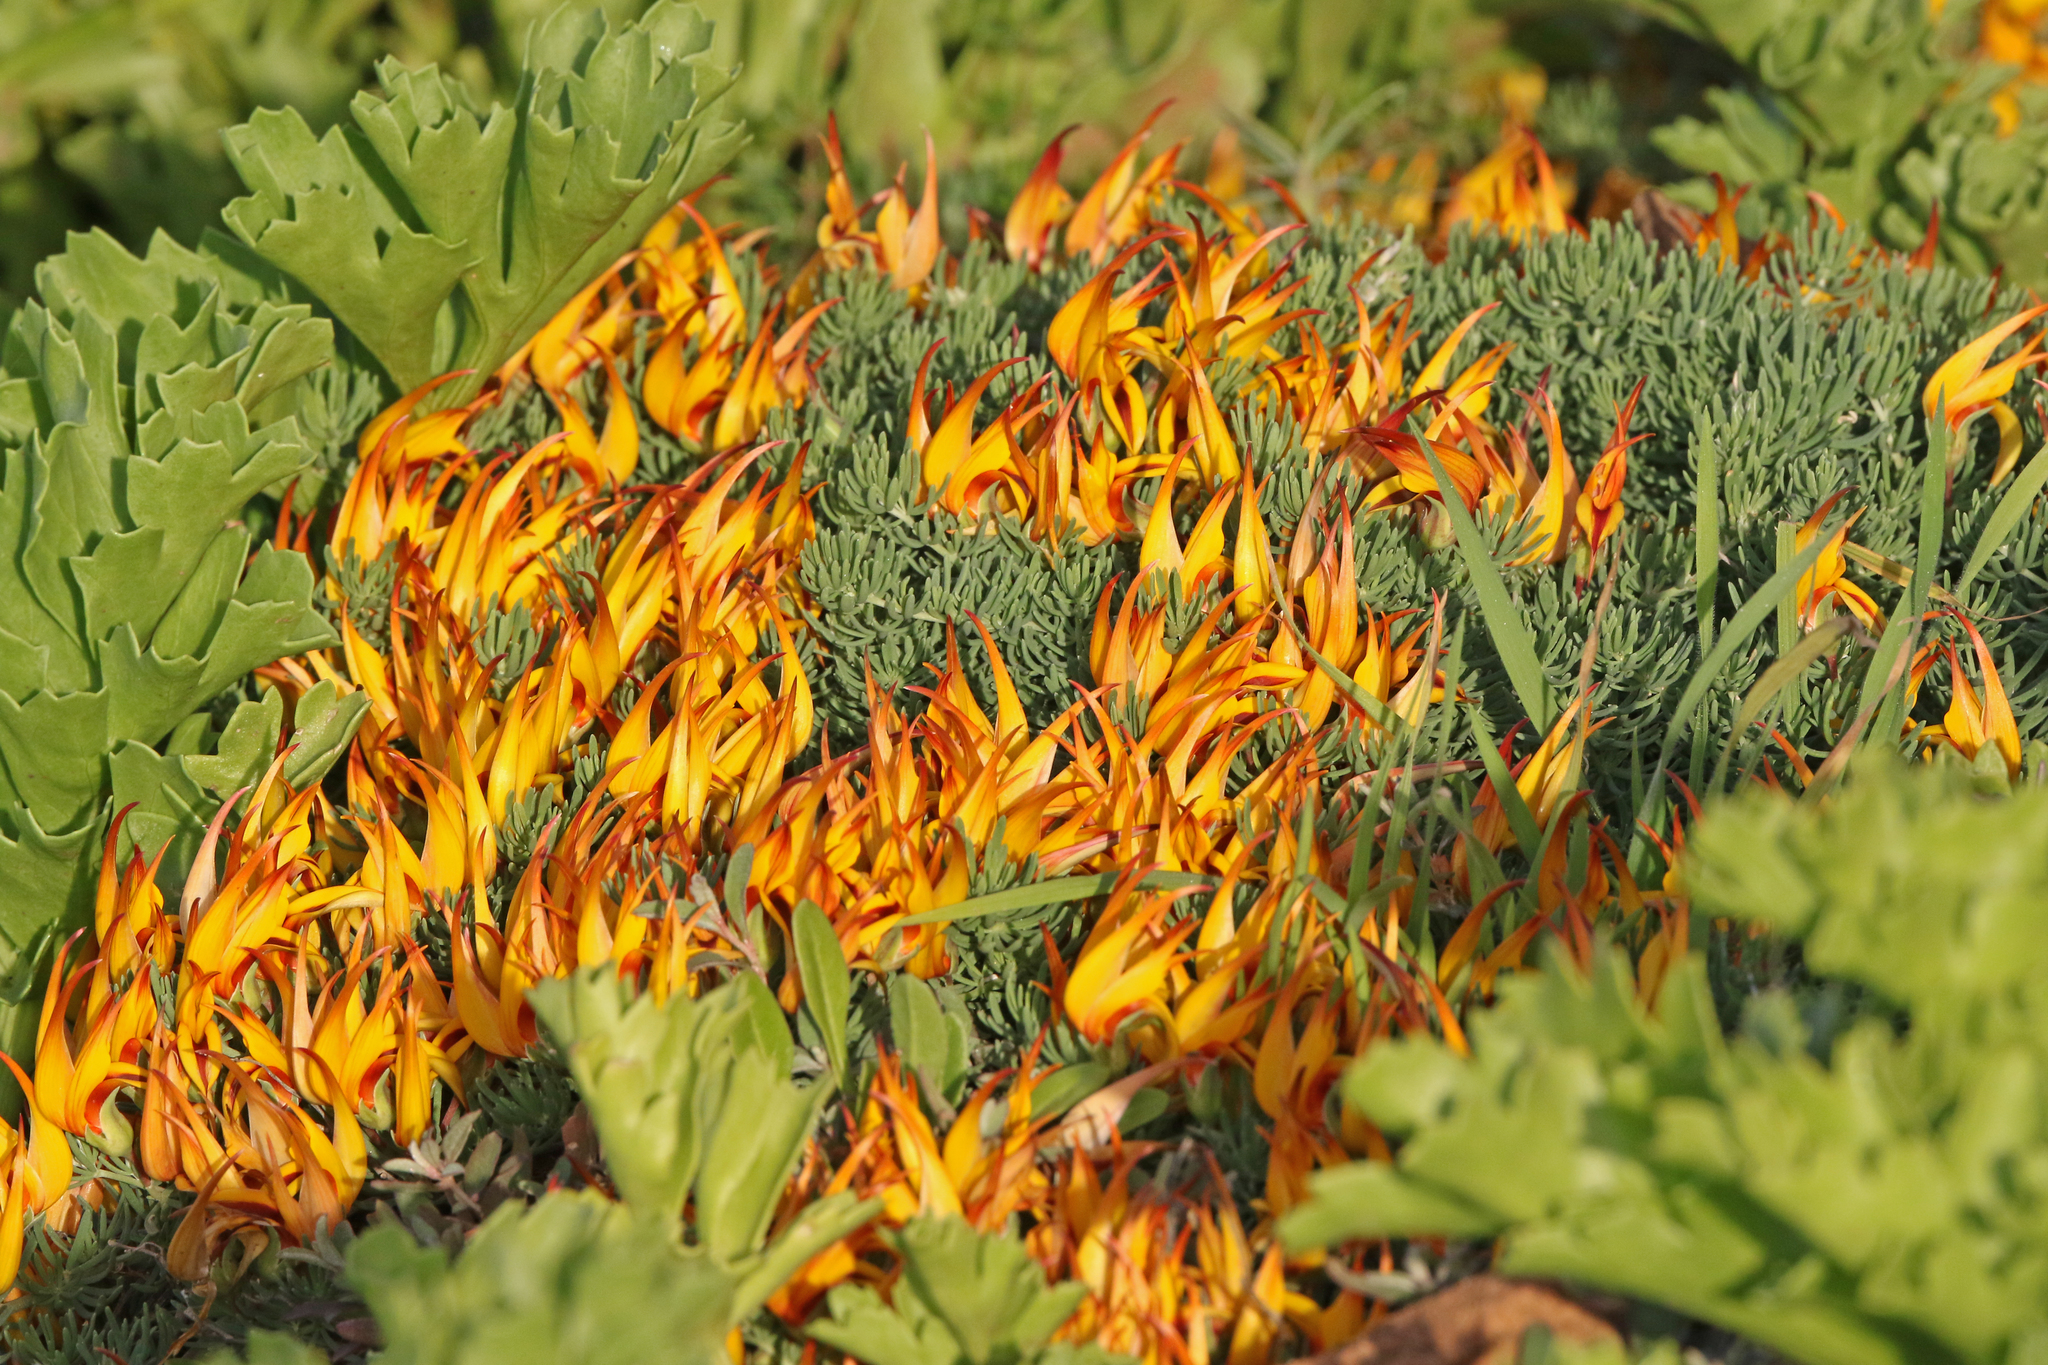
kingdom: Plantae
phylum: Tracheophyta
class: Magnoliopsida
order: Fabales
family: Fabaceae
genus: Lotus
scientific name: Lotus maculatus
